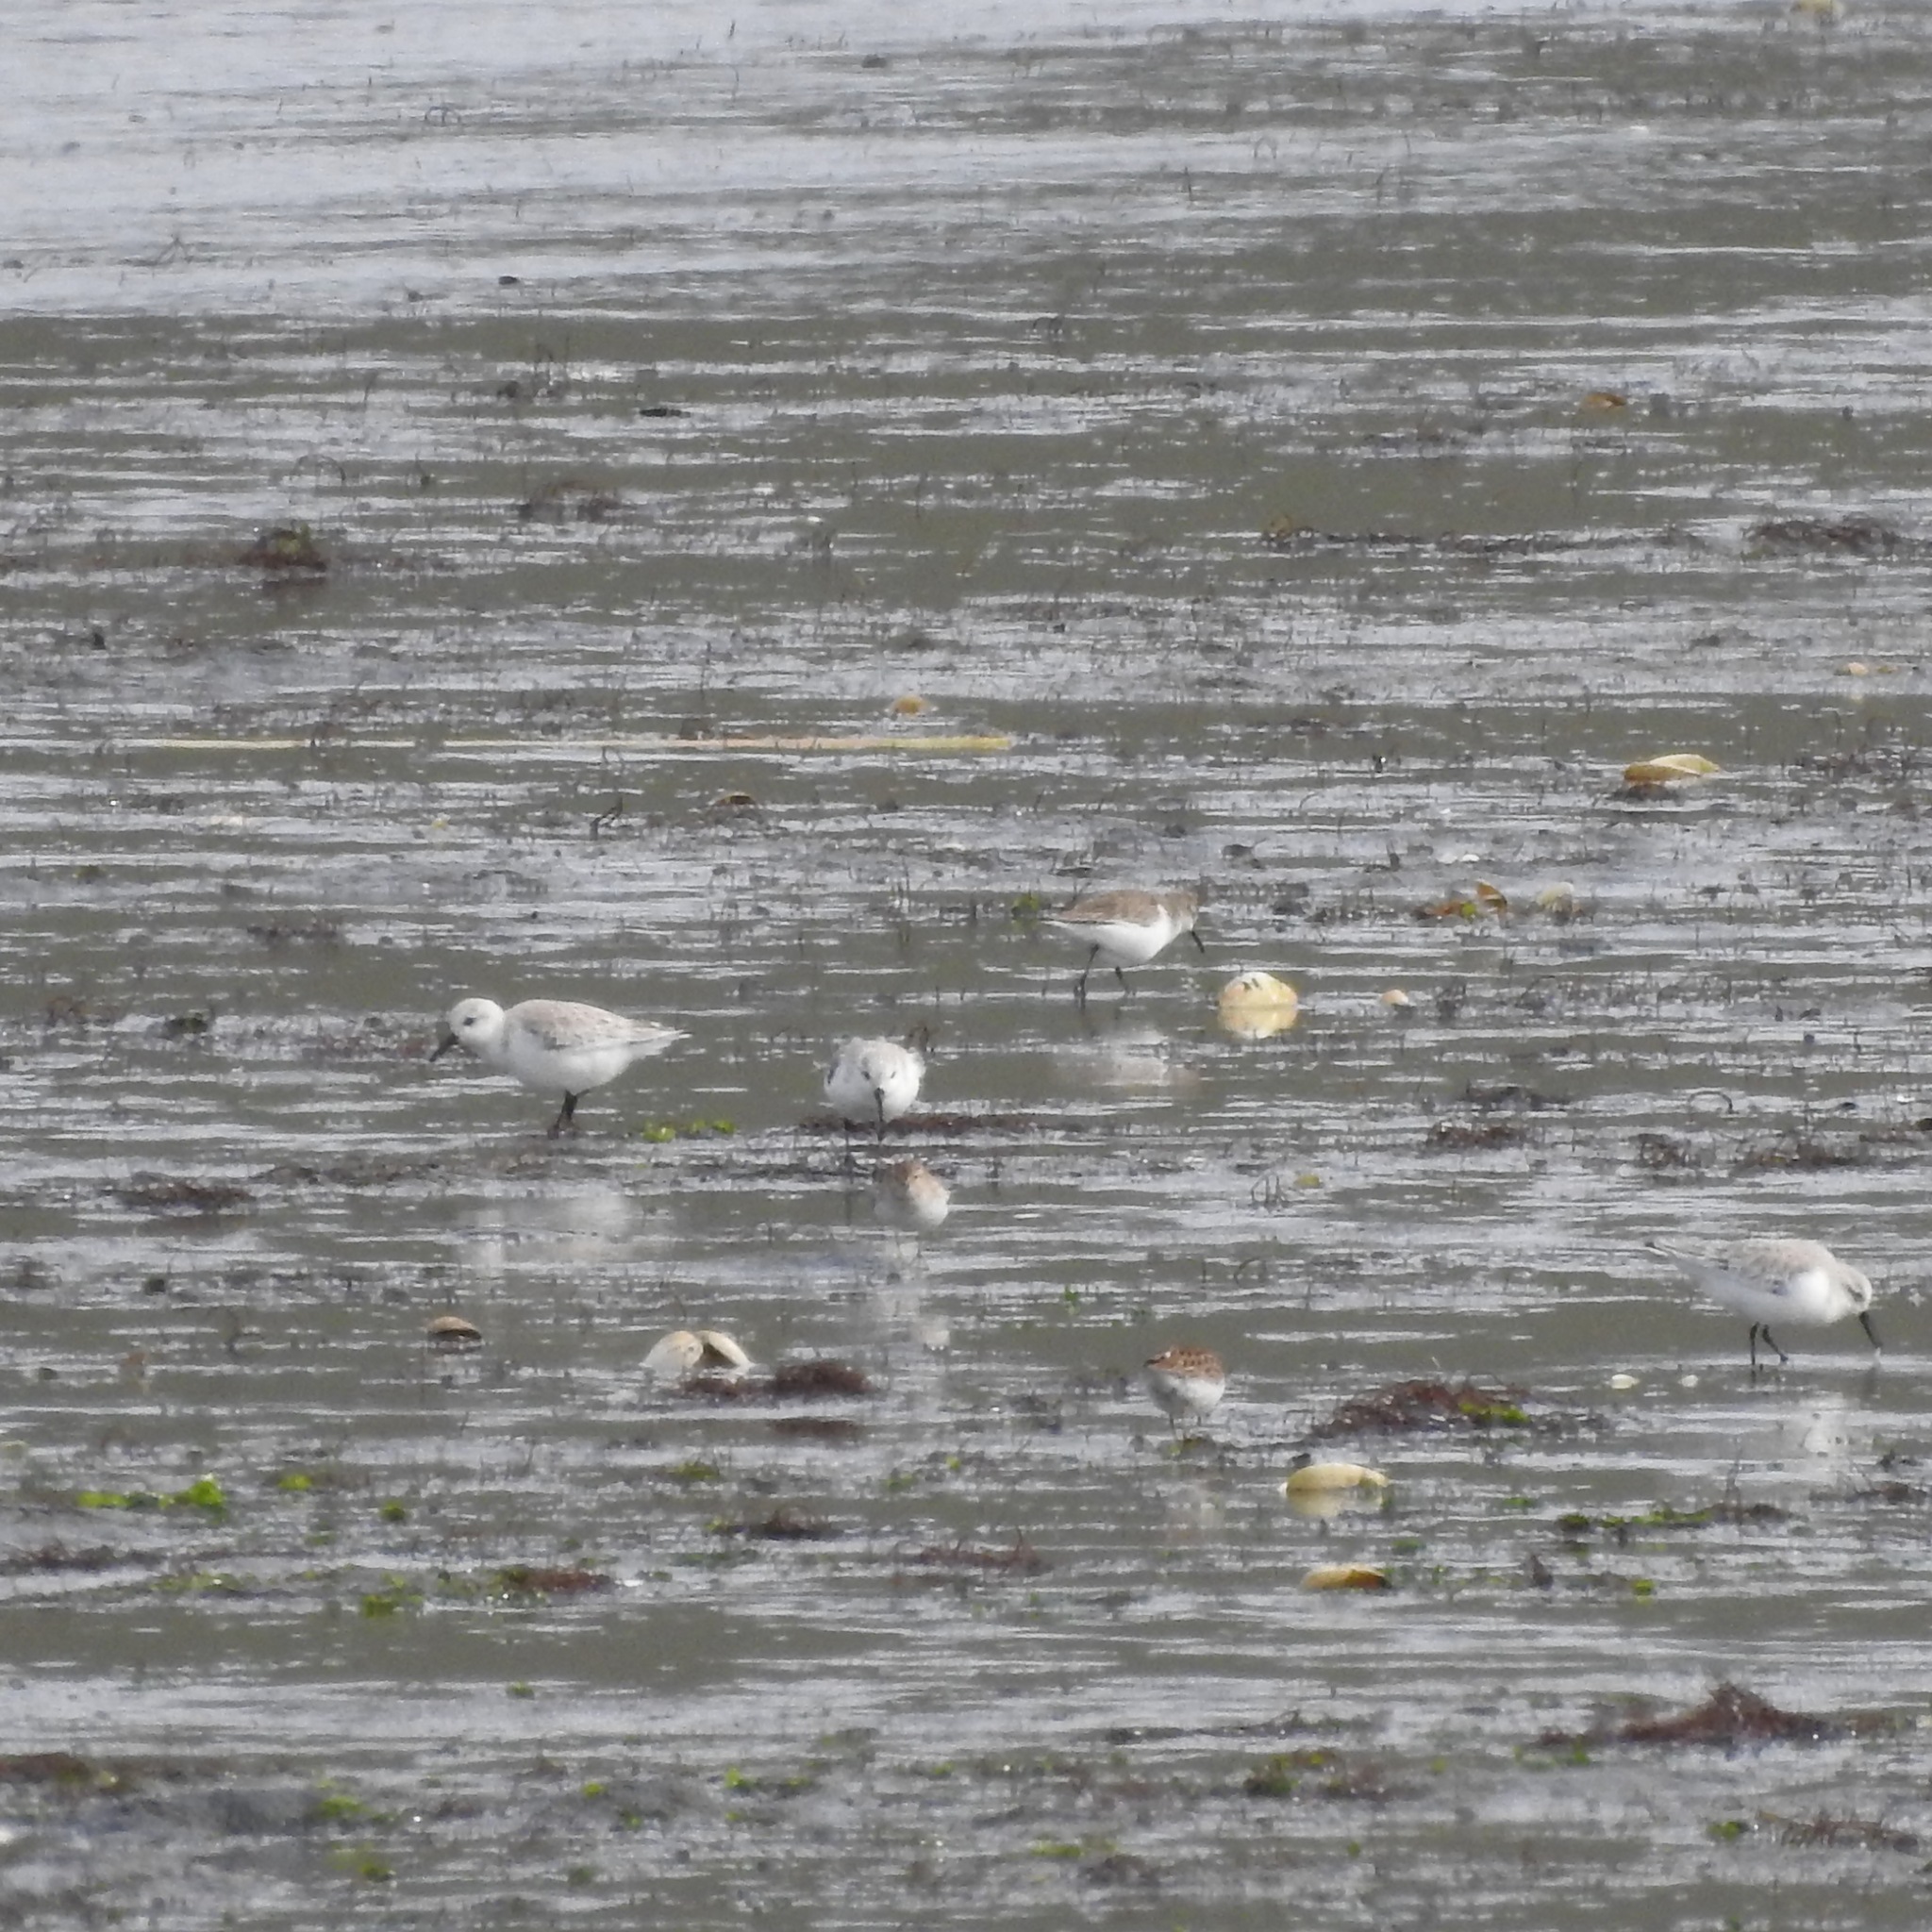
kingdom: Animalia
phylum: Chordata
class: Aves
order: Charadriiformes
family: Scolopacidae
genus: Calidris
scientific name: Calidris mauri
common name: Western sandpiper
